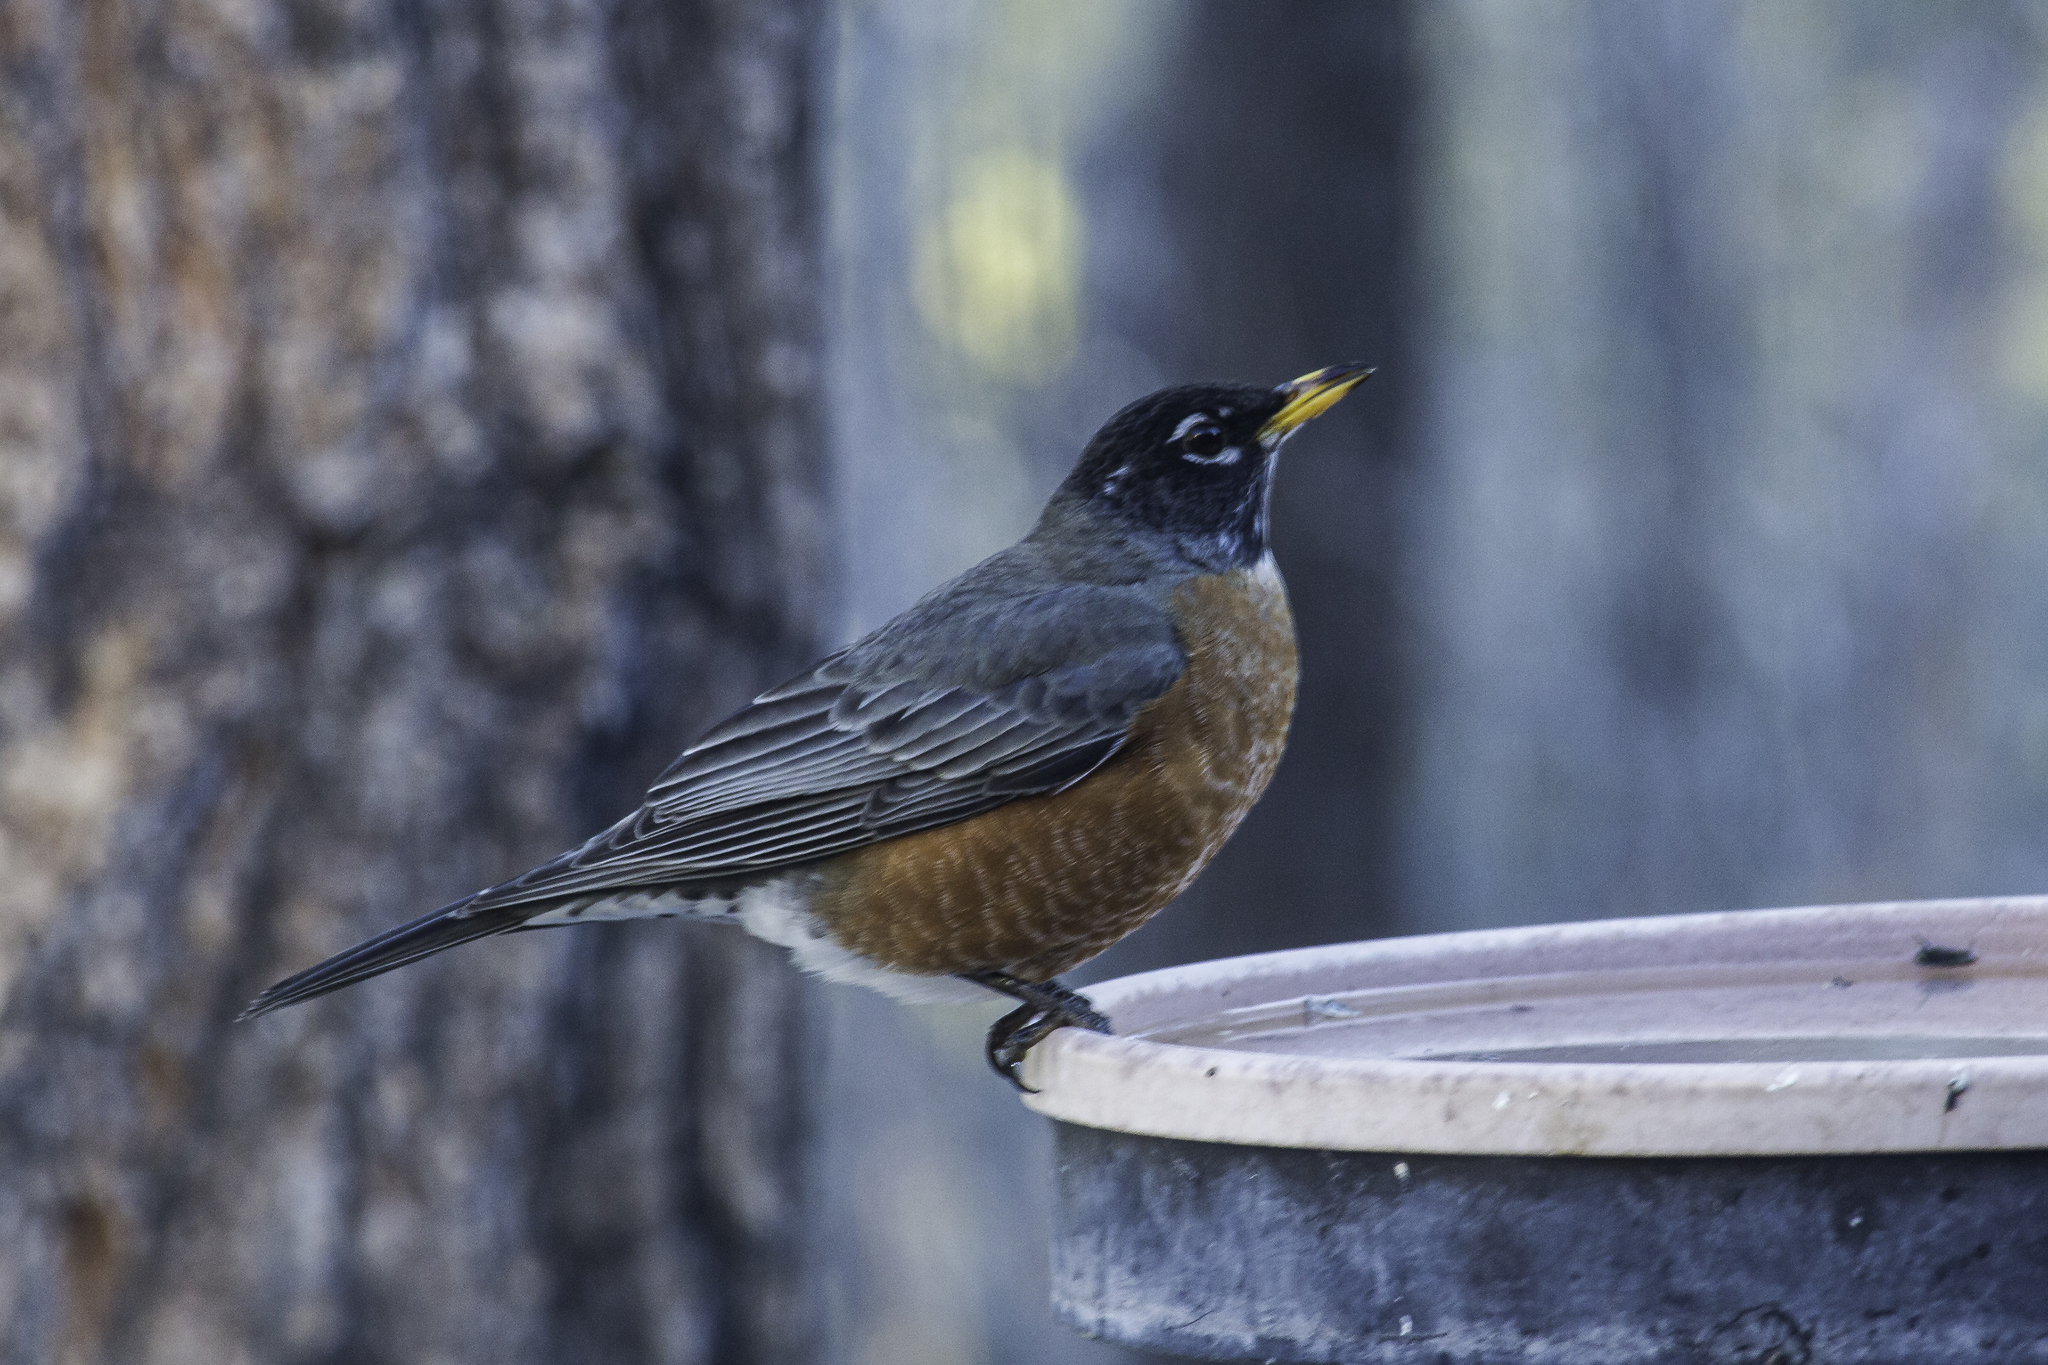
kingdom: Animalia
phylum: Chordata
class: Aves
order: Passeriformes
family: Turdidae
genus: Turdus
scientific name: Turdus migratorius
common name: American robin
